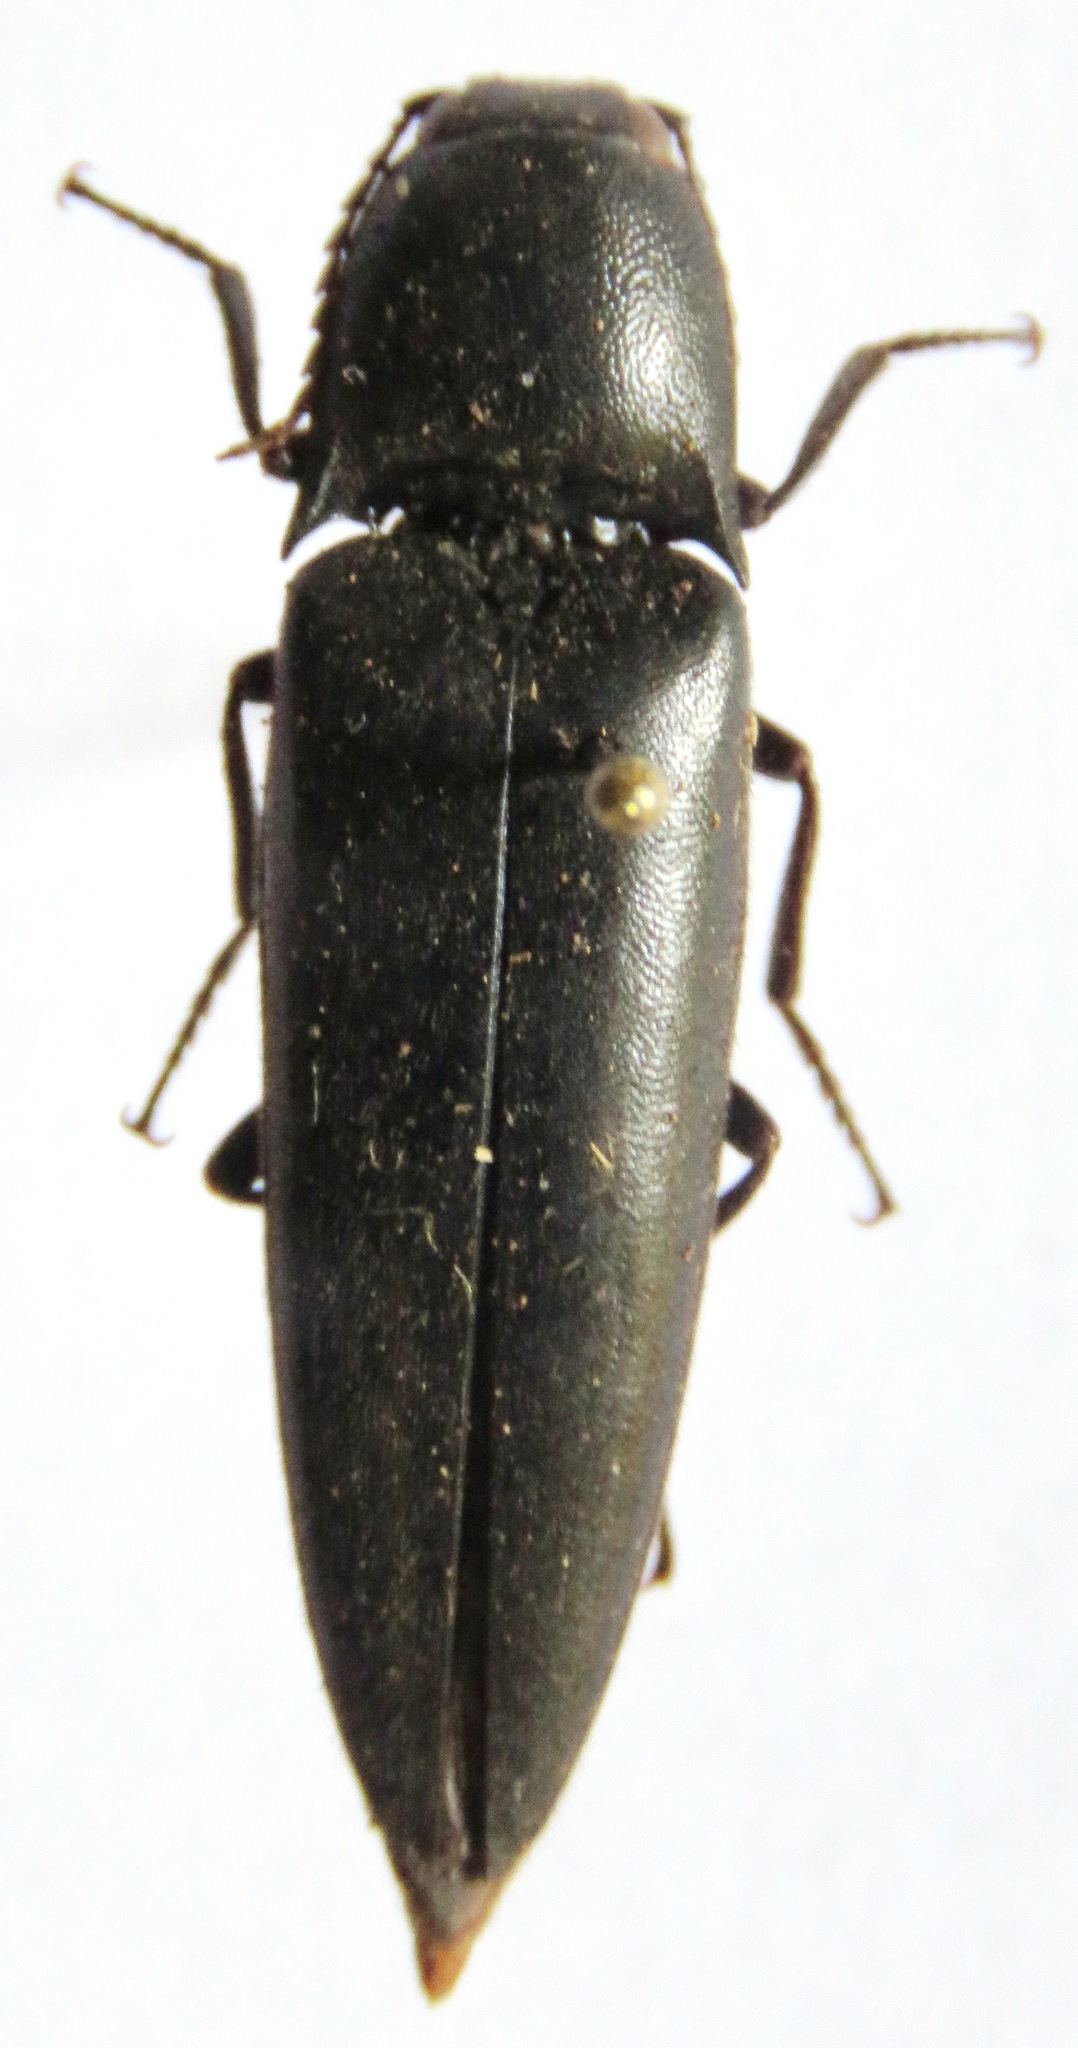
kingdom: Animalia
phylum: Arthropoda
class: Insecta
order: Coleoptera
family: Elateridae
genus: Orthostethus
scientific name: Orthostethus
